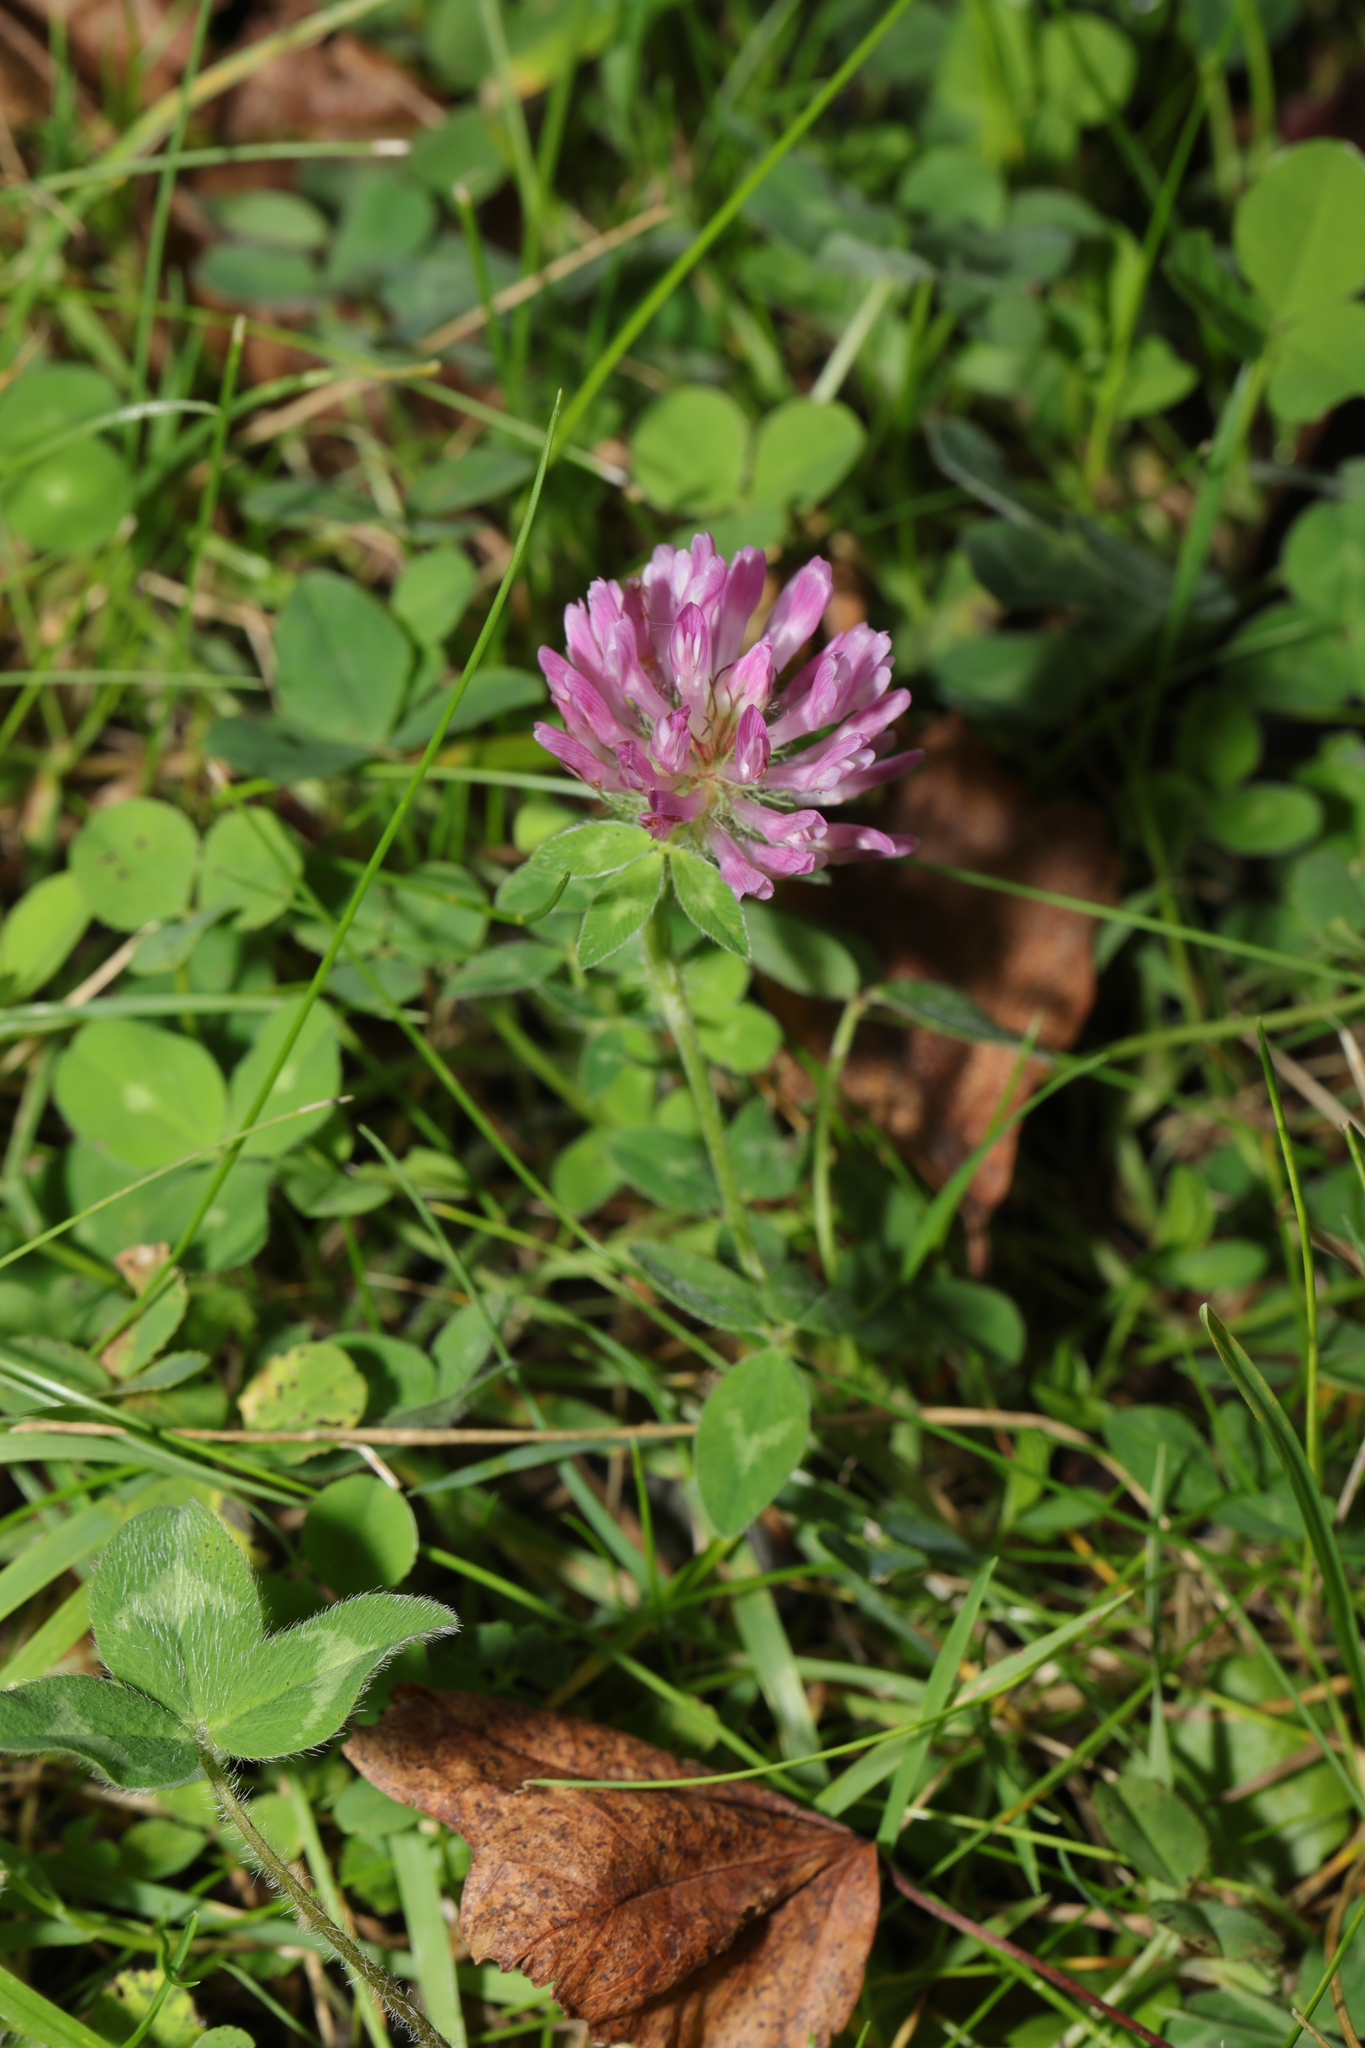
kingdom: Plantae
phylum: Tracheophyta
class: Magnoliopsida
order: Fabales
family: Fabaceae
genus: Trifolium
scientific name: Trifolium pratense
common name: Red clover
